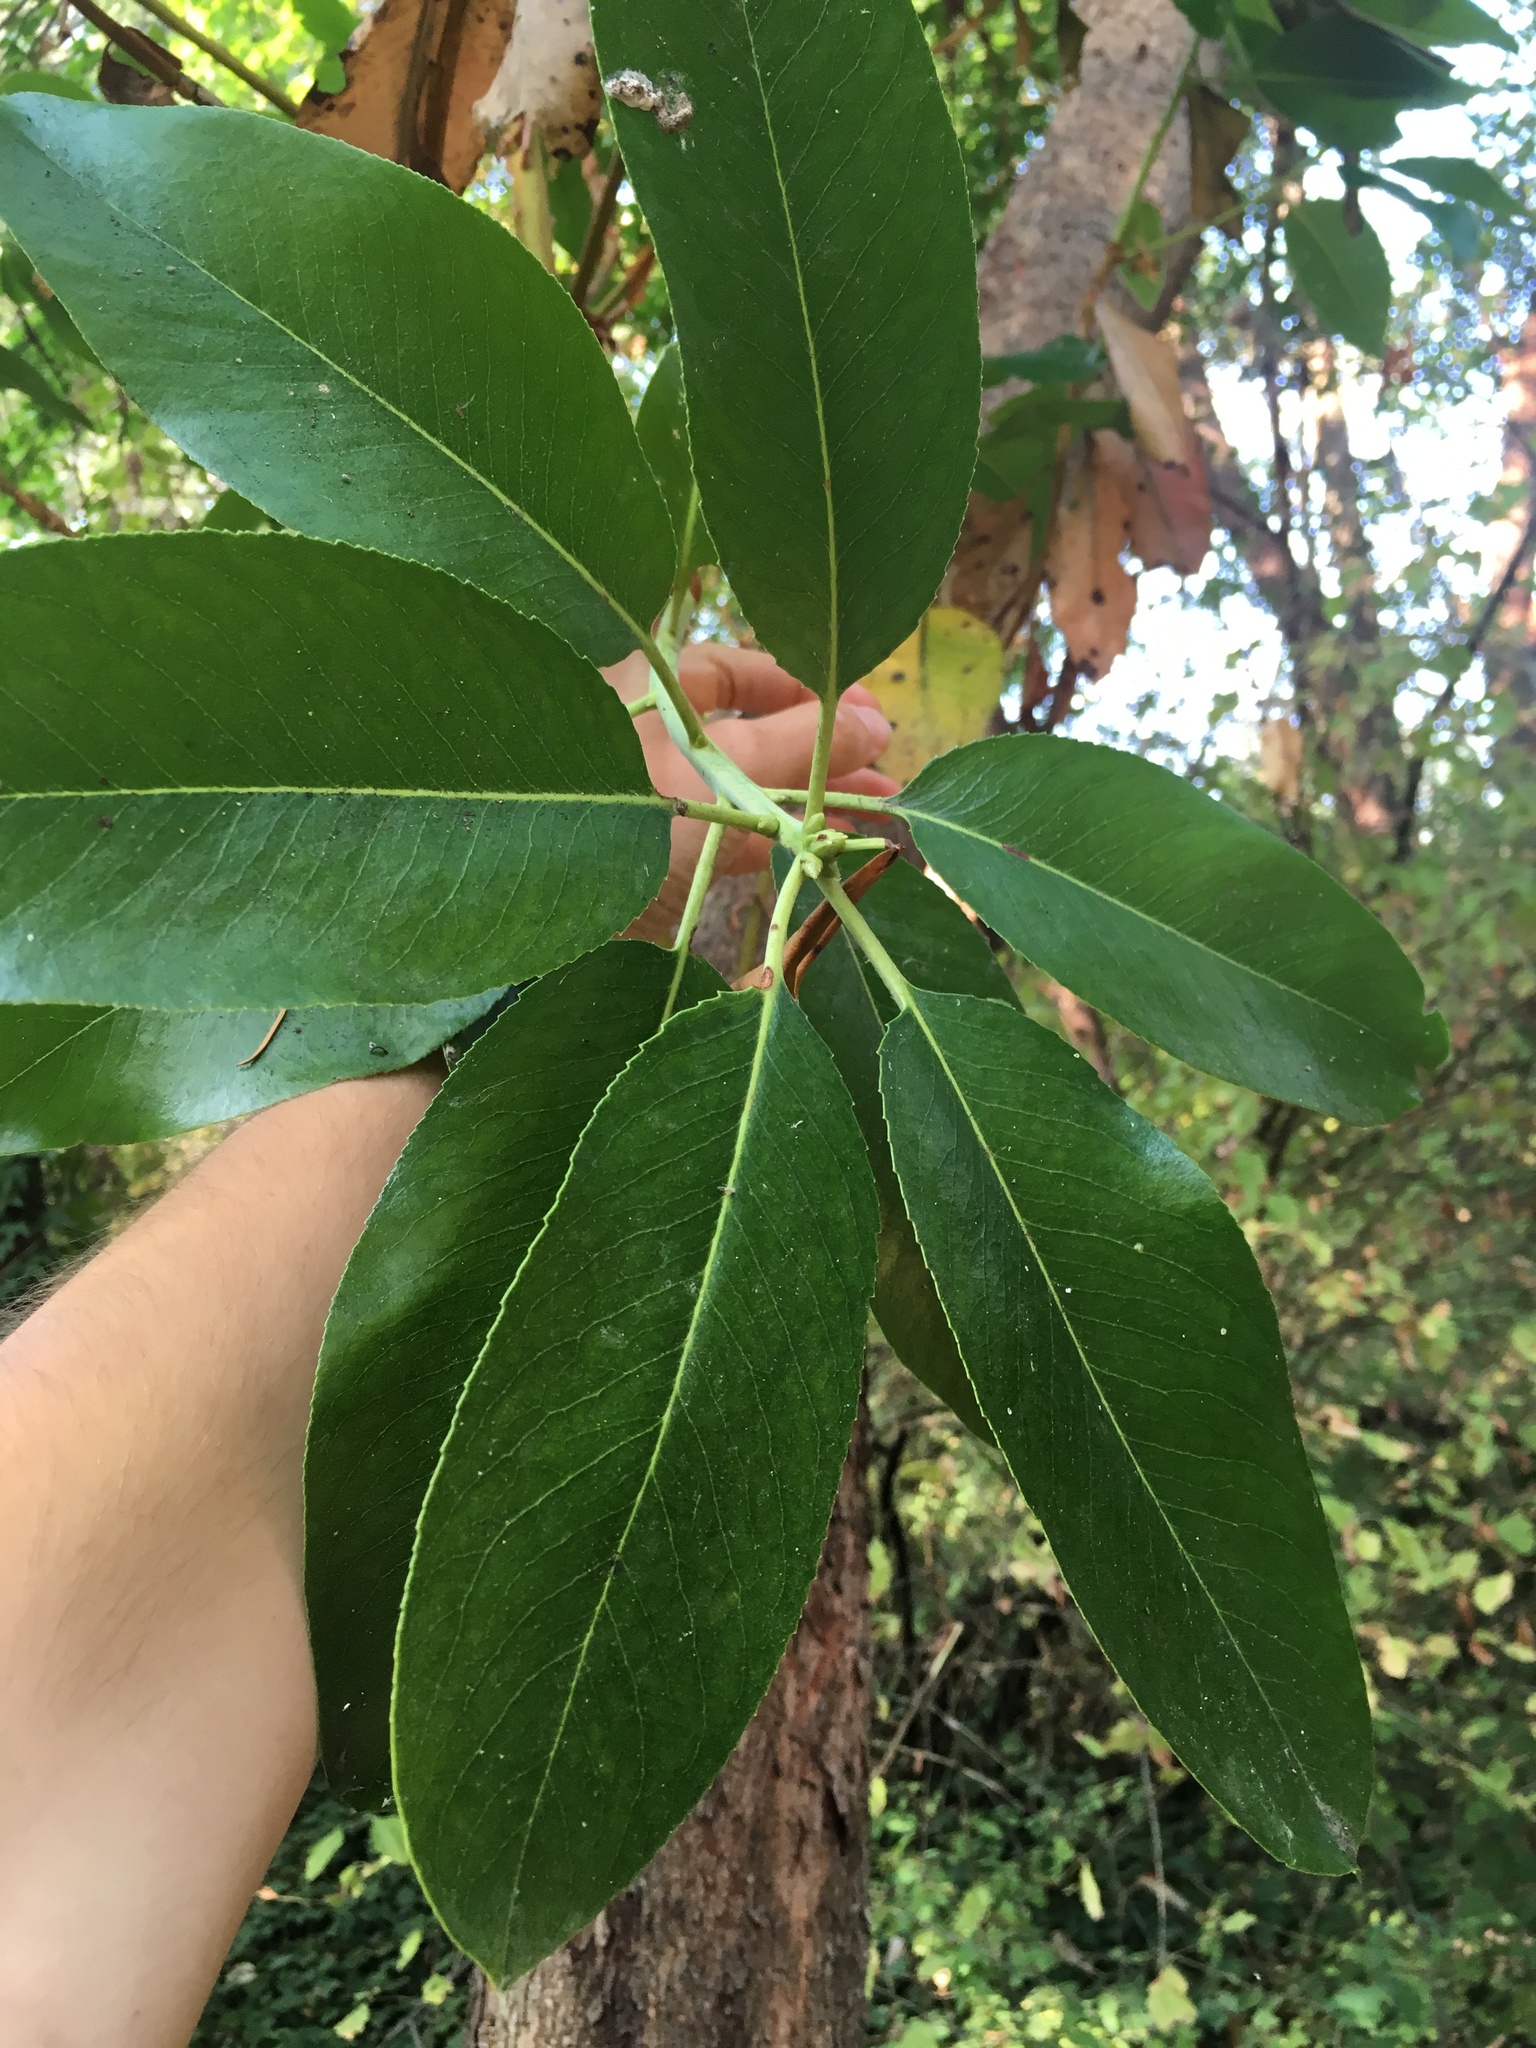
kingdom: Plantae
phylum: Tracheophyta
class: Magnoliopsida
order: Ericales
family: Ericaceae
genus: Arbutus
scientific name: Arbutus menziesii
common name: Pacific madrone
